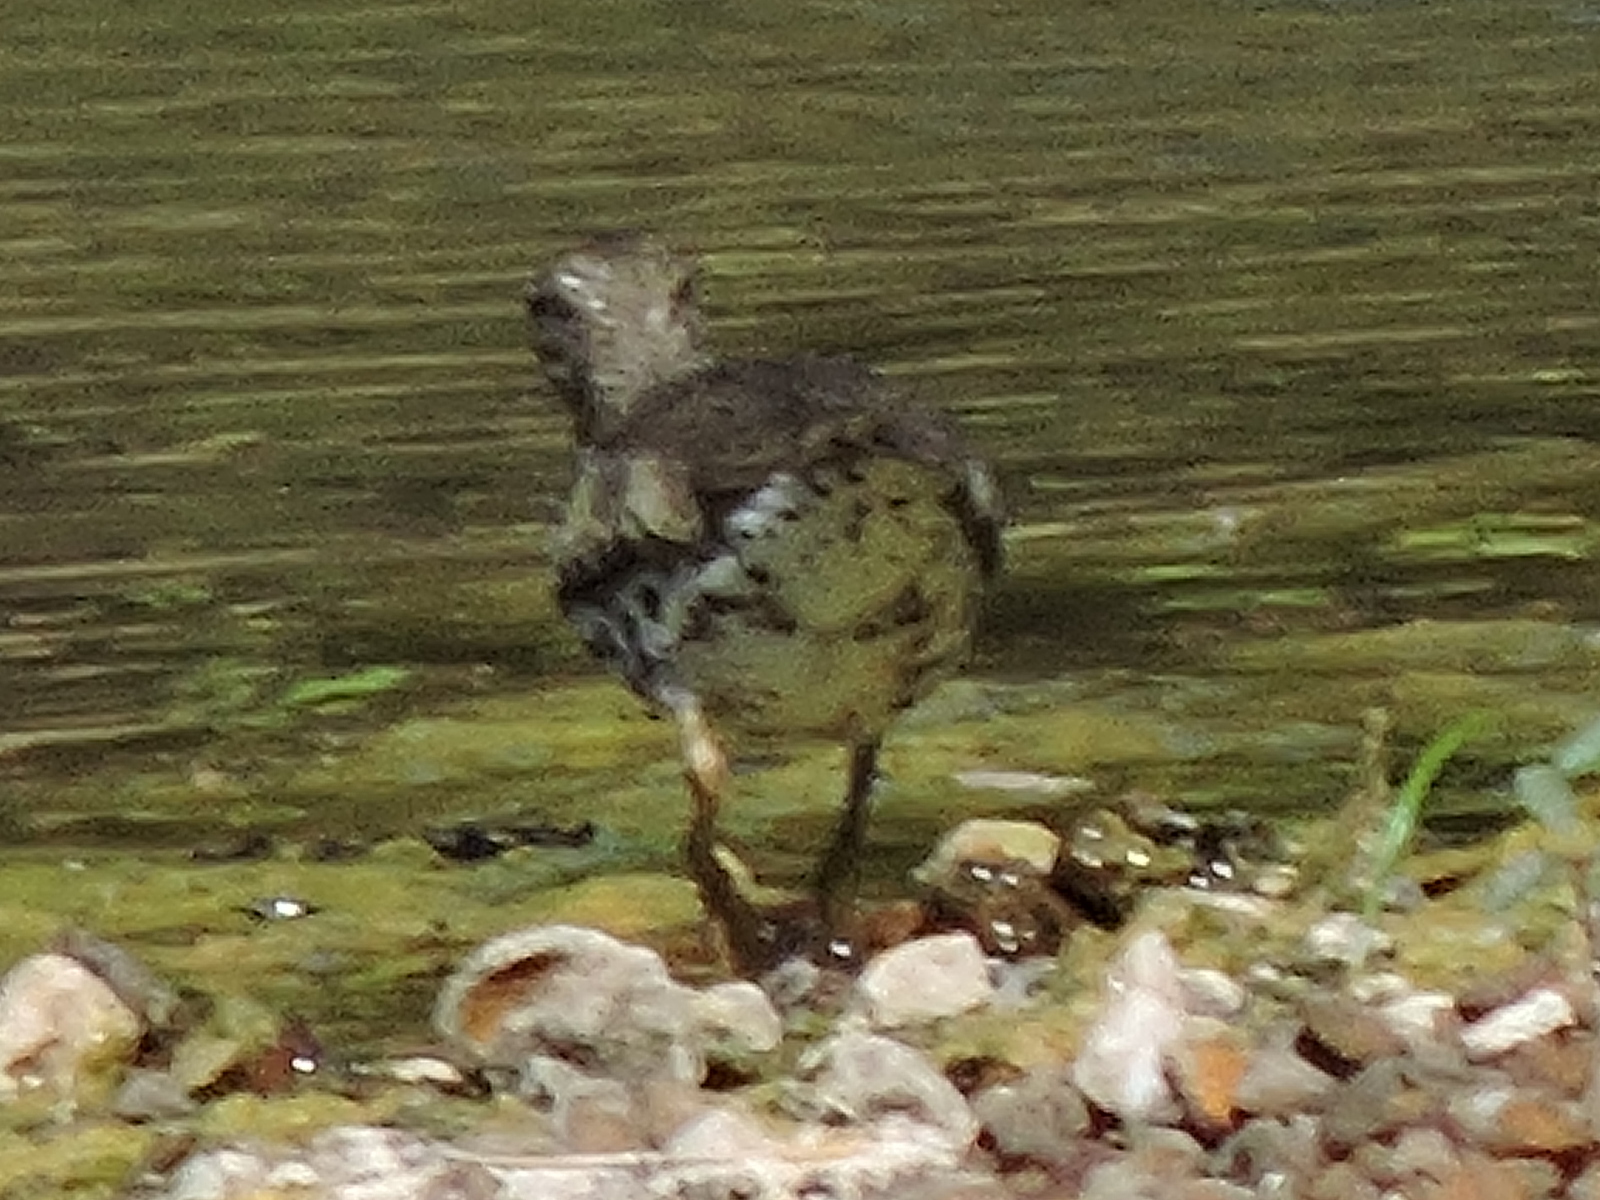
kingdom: Animalia
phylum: Chordata
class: Aves
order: Charadriiformes
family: Scolopacidae
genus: Actitis
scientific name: Actitis macularius
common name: Spotted sandpiper
